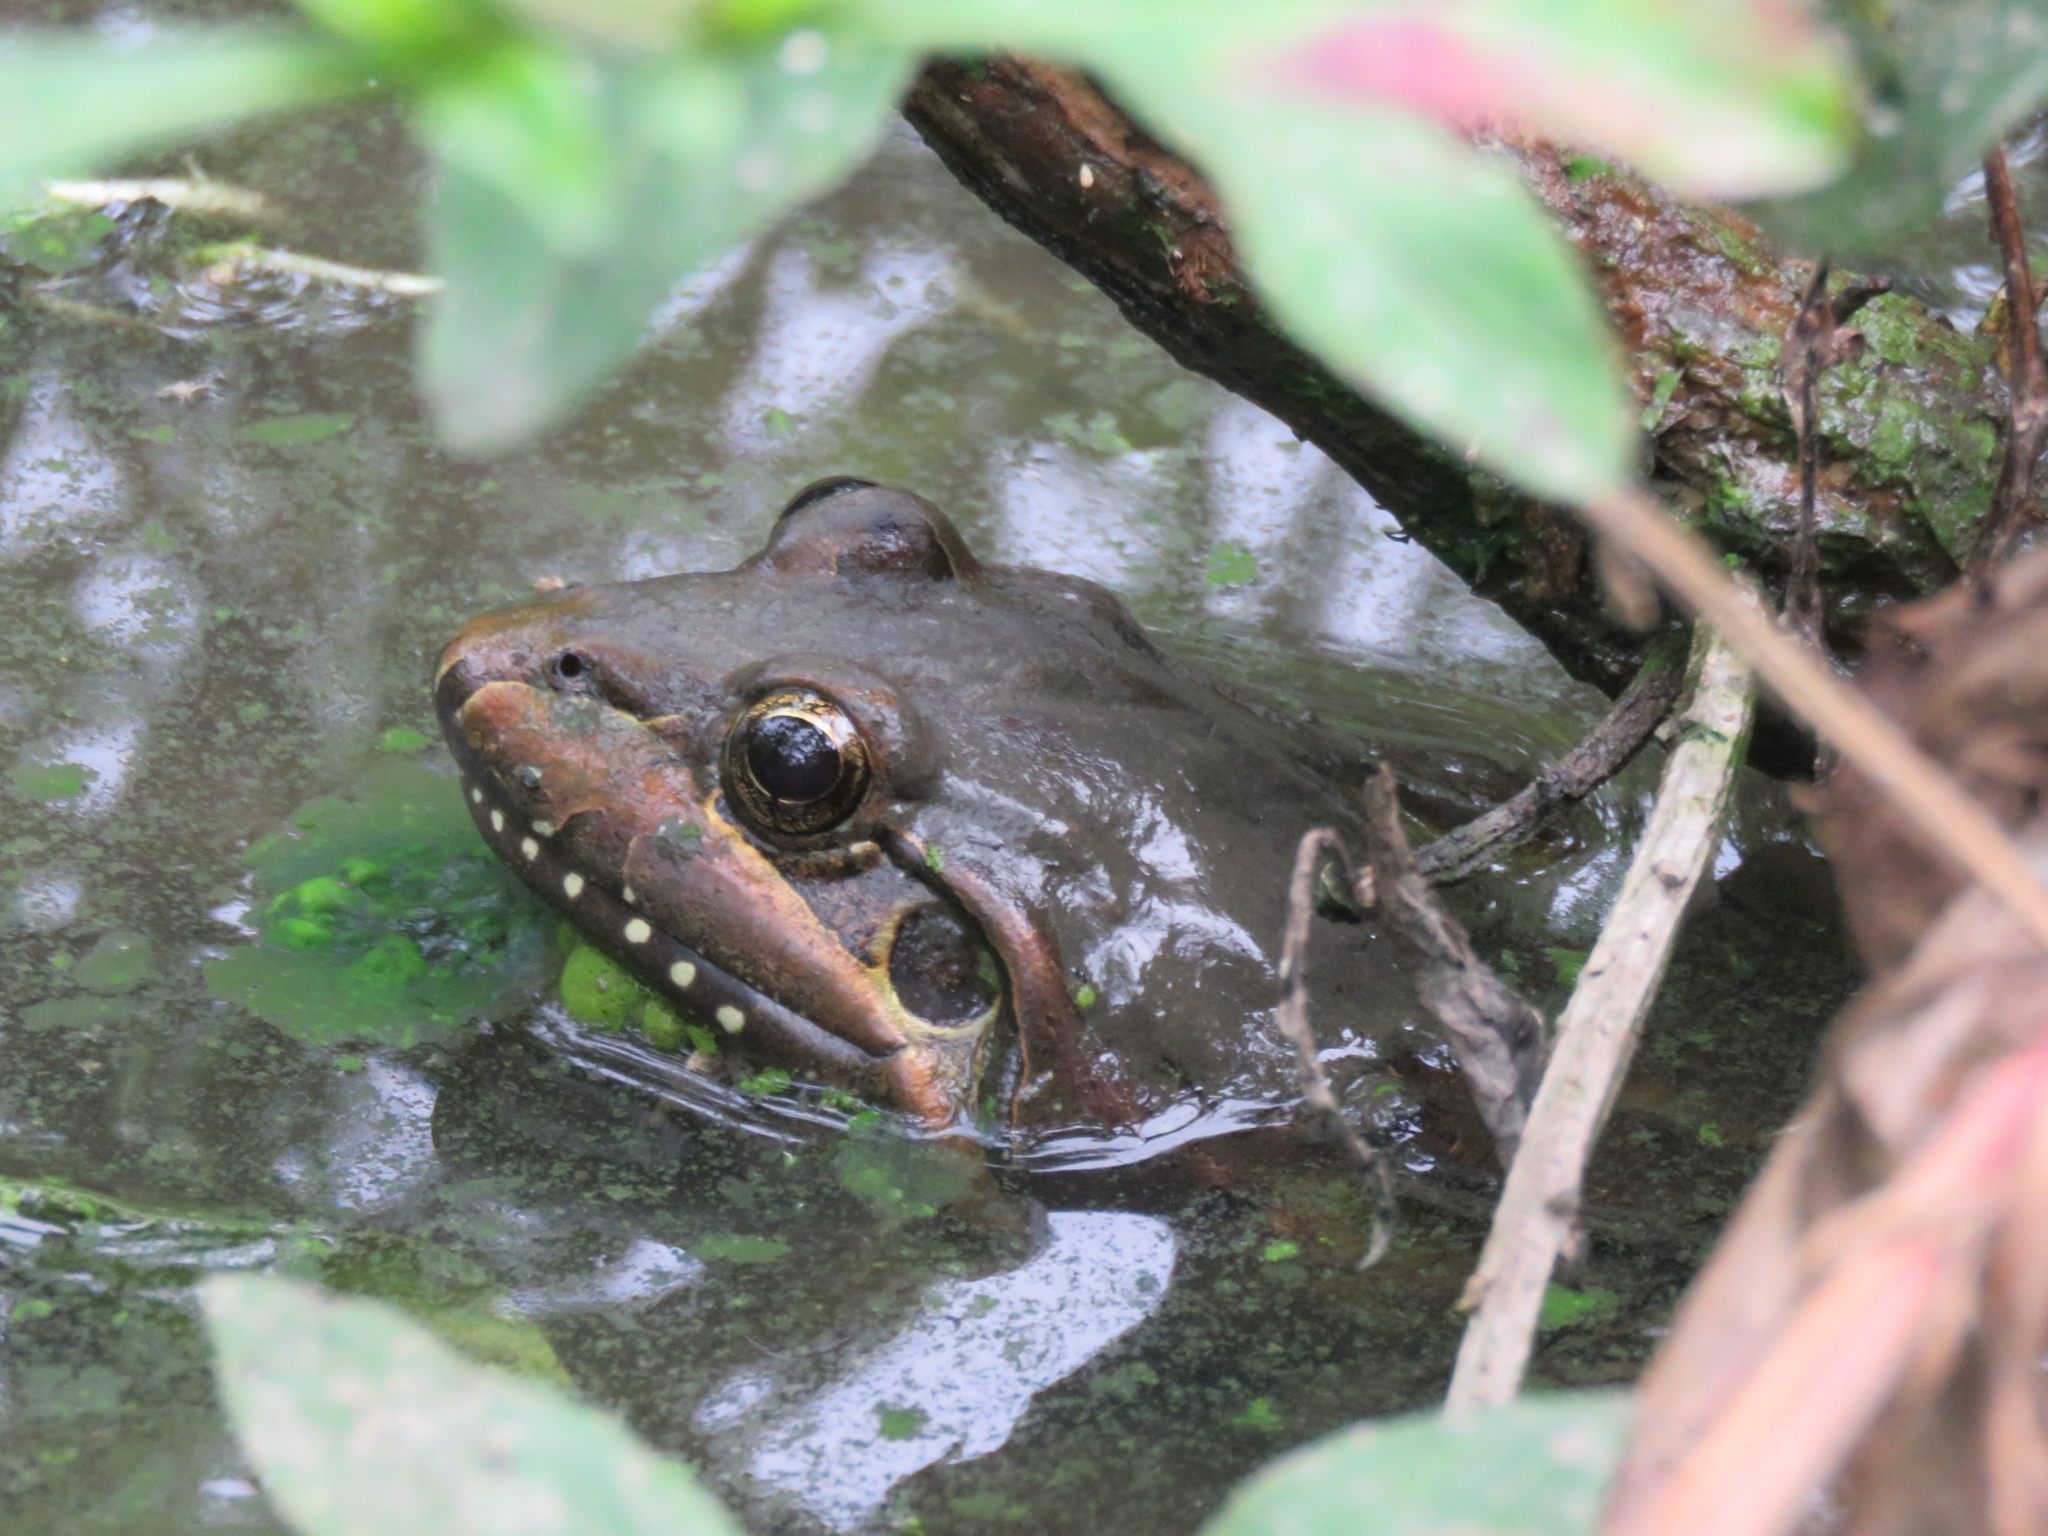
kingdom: Animalia
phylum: Chordata
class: Amphibia
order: Anura
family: Leptodactylidae
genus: Leptodactylus
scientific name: Leptodactylus luctator
